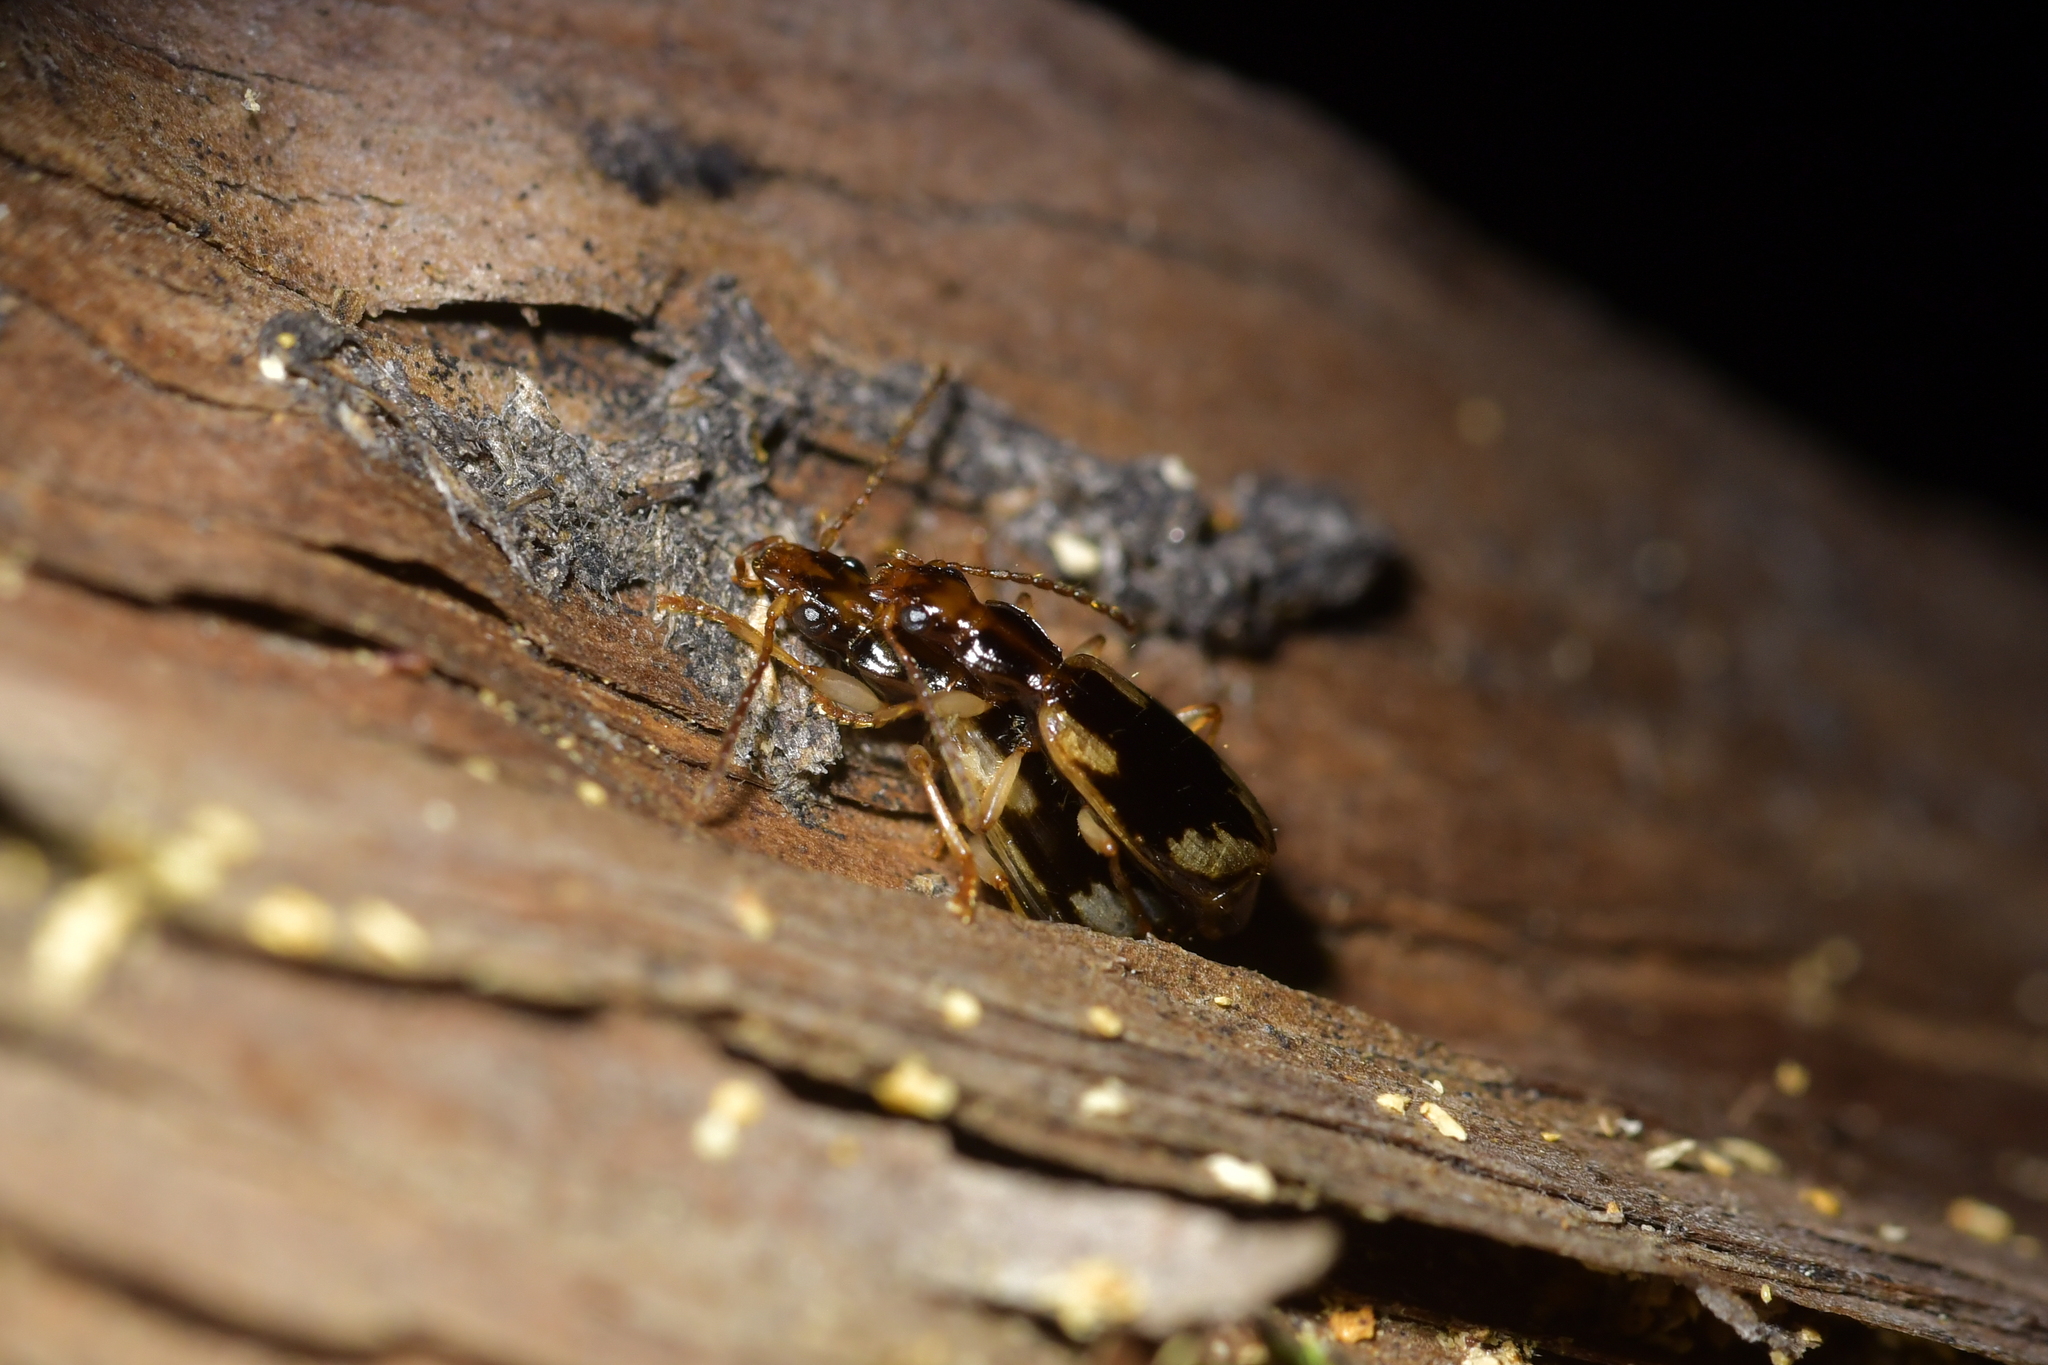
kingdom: Animalia
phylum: Arthropoda
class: Insecta
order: Coleoptera
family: Carabidae
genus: Demetrida
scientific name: Demetrida nasuta
